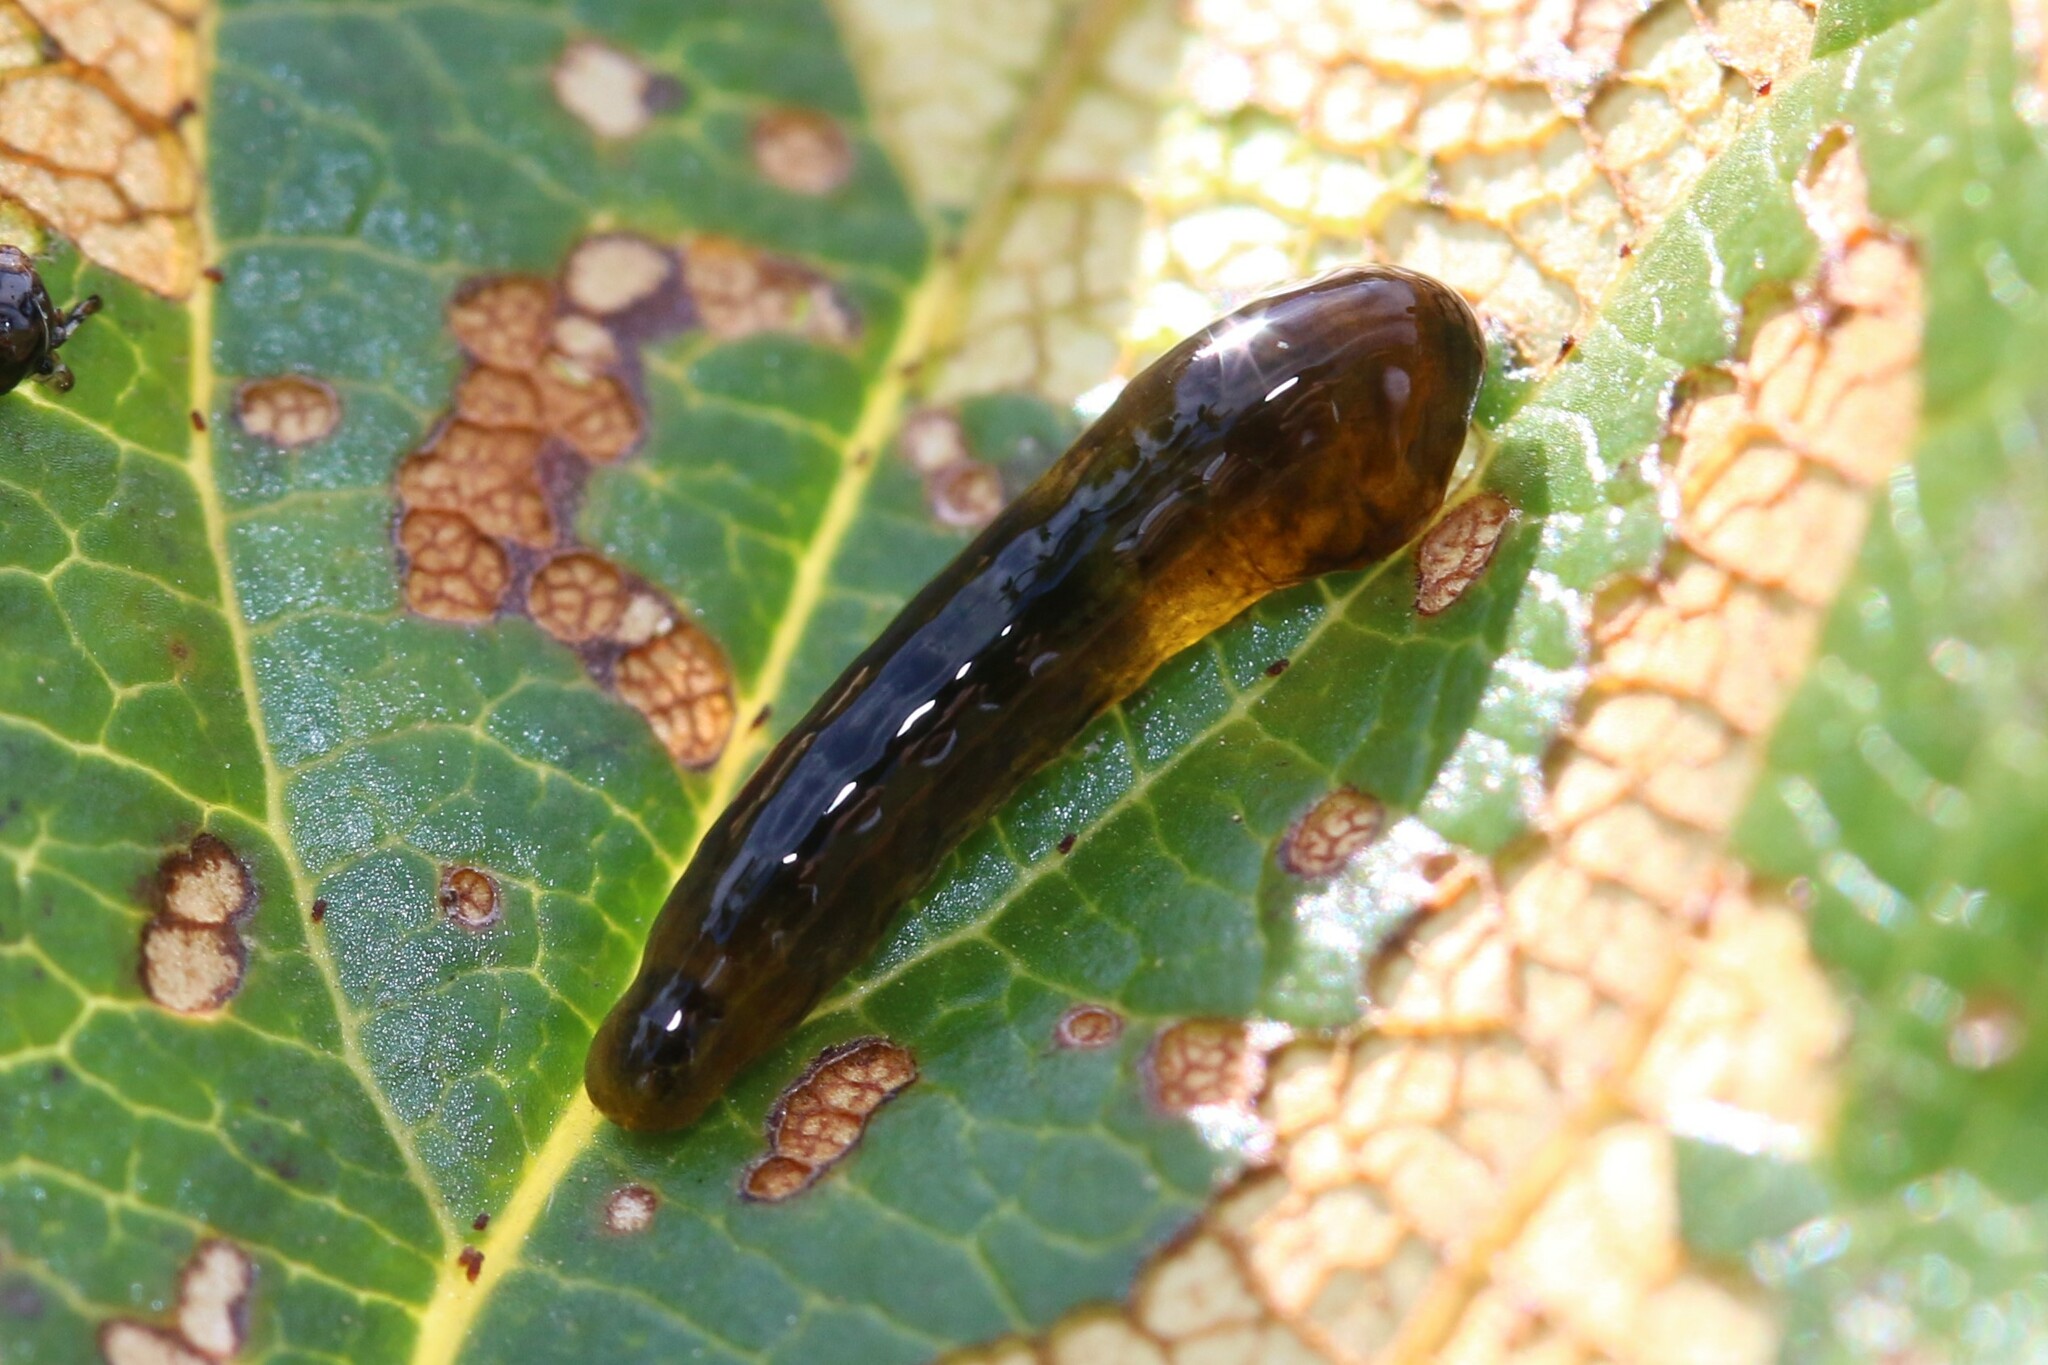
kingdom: Animalia
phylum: Arthropoda
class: Insecta
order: Hymenoptera
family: Tenthredinidae
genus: Caliroa
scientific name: Caliroa cerasi
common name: Pear sawfly
